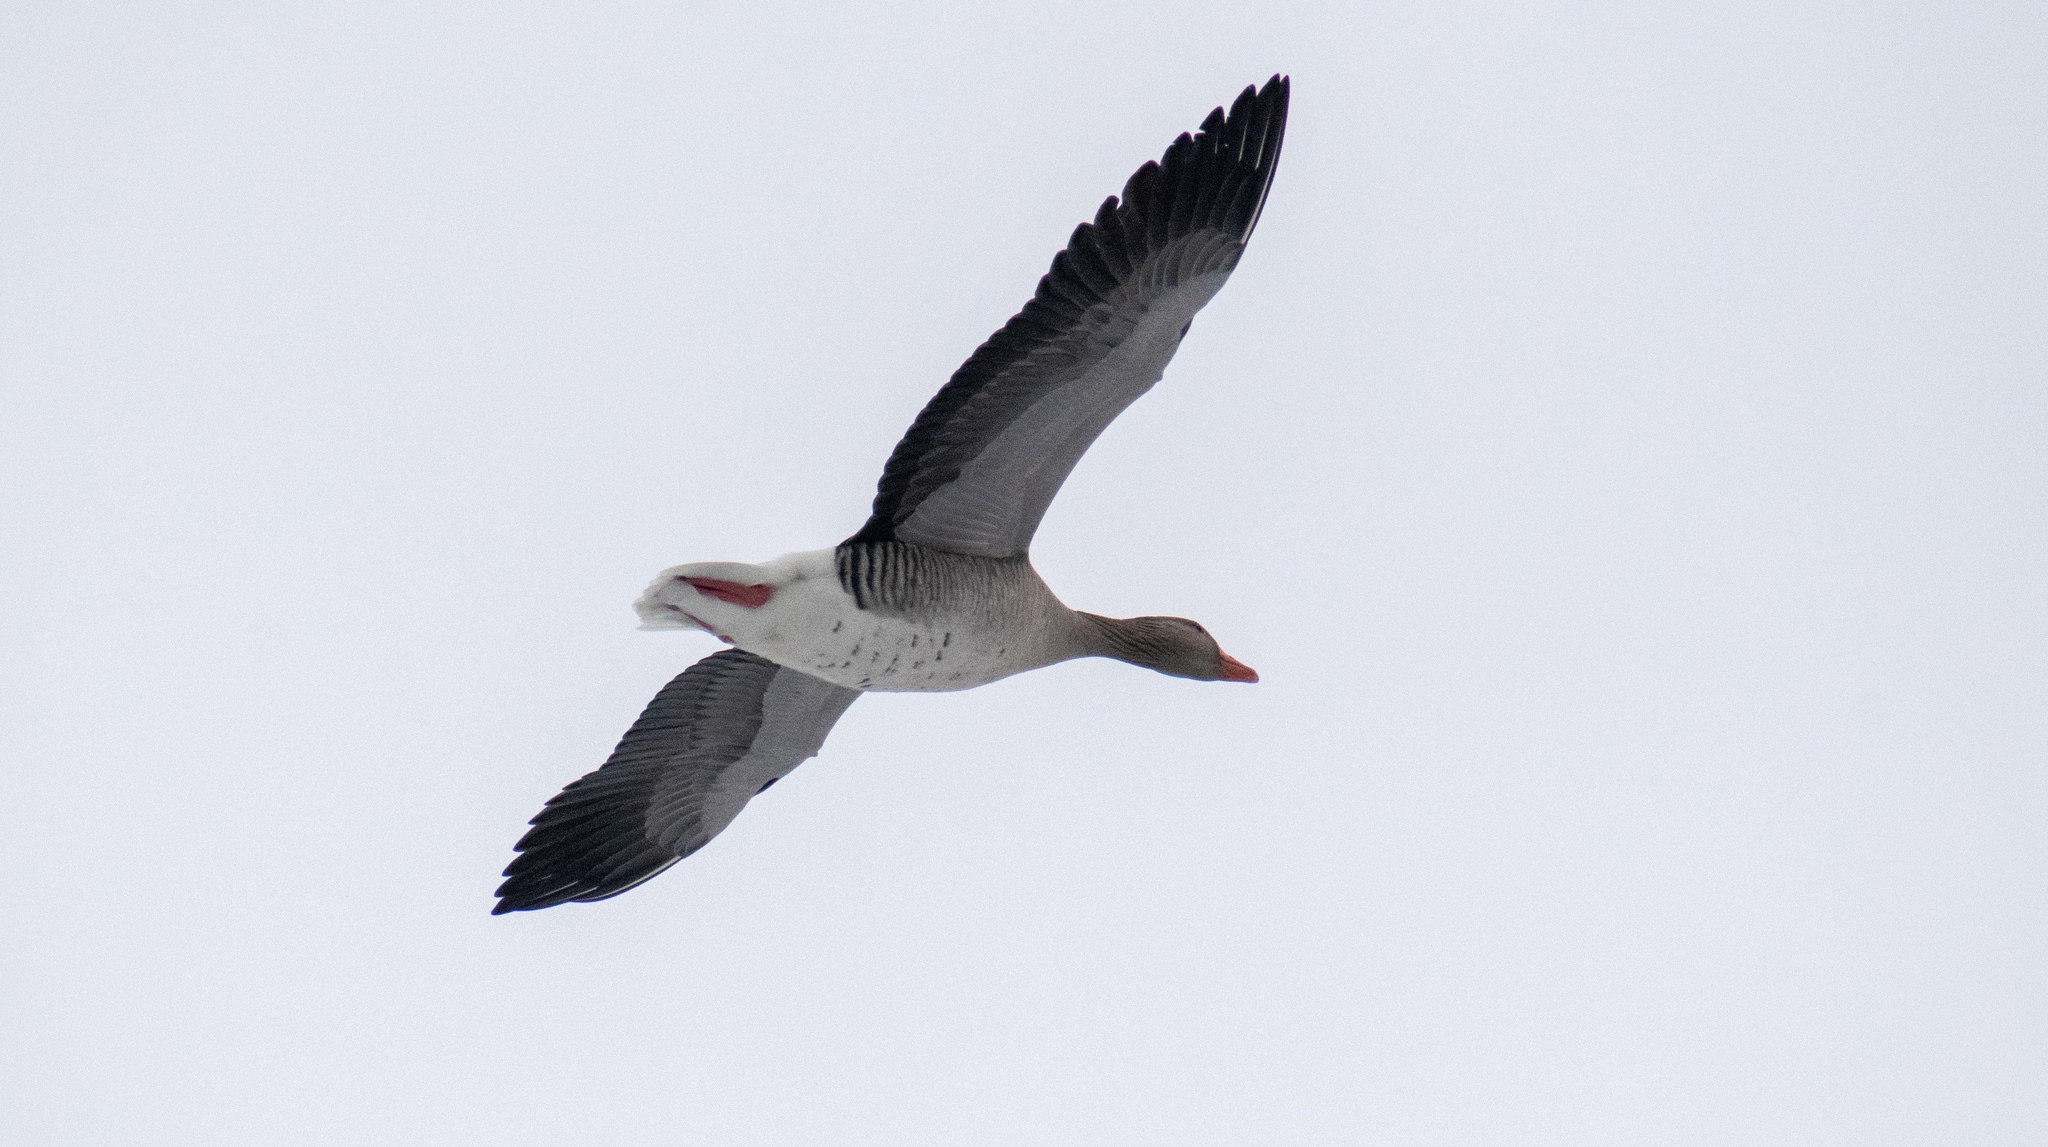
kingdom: Animalia
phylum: Chordata
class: Aves
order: Anseriformes
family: Anatidae
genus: Anser
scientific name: Anser anser
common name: Greylag goose
